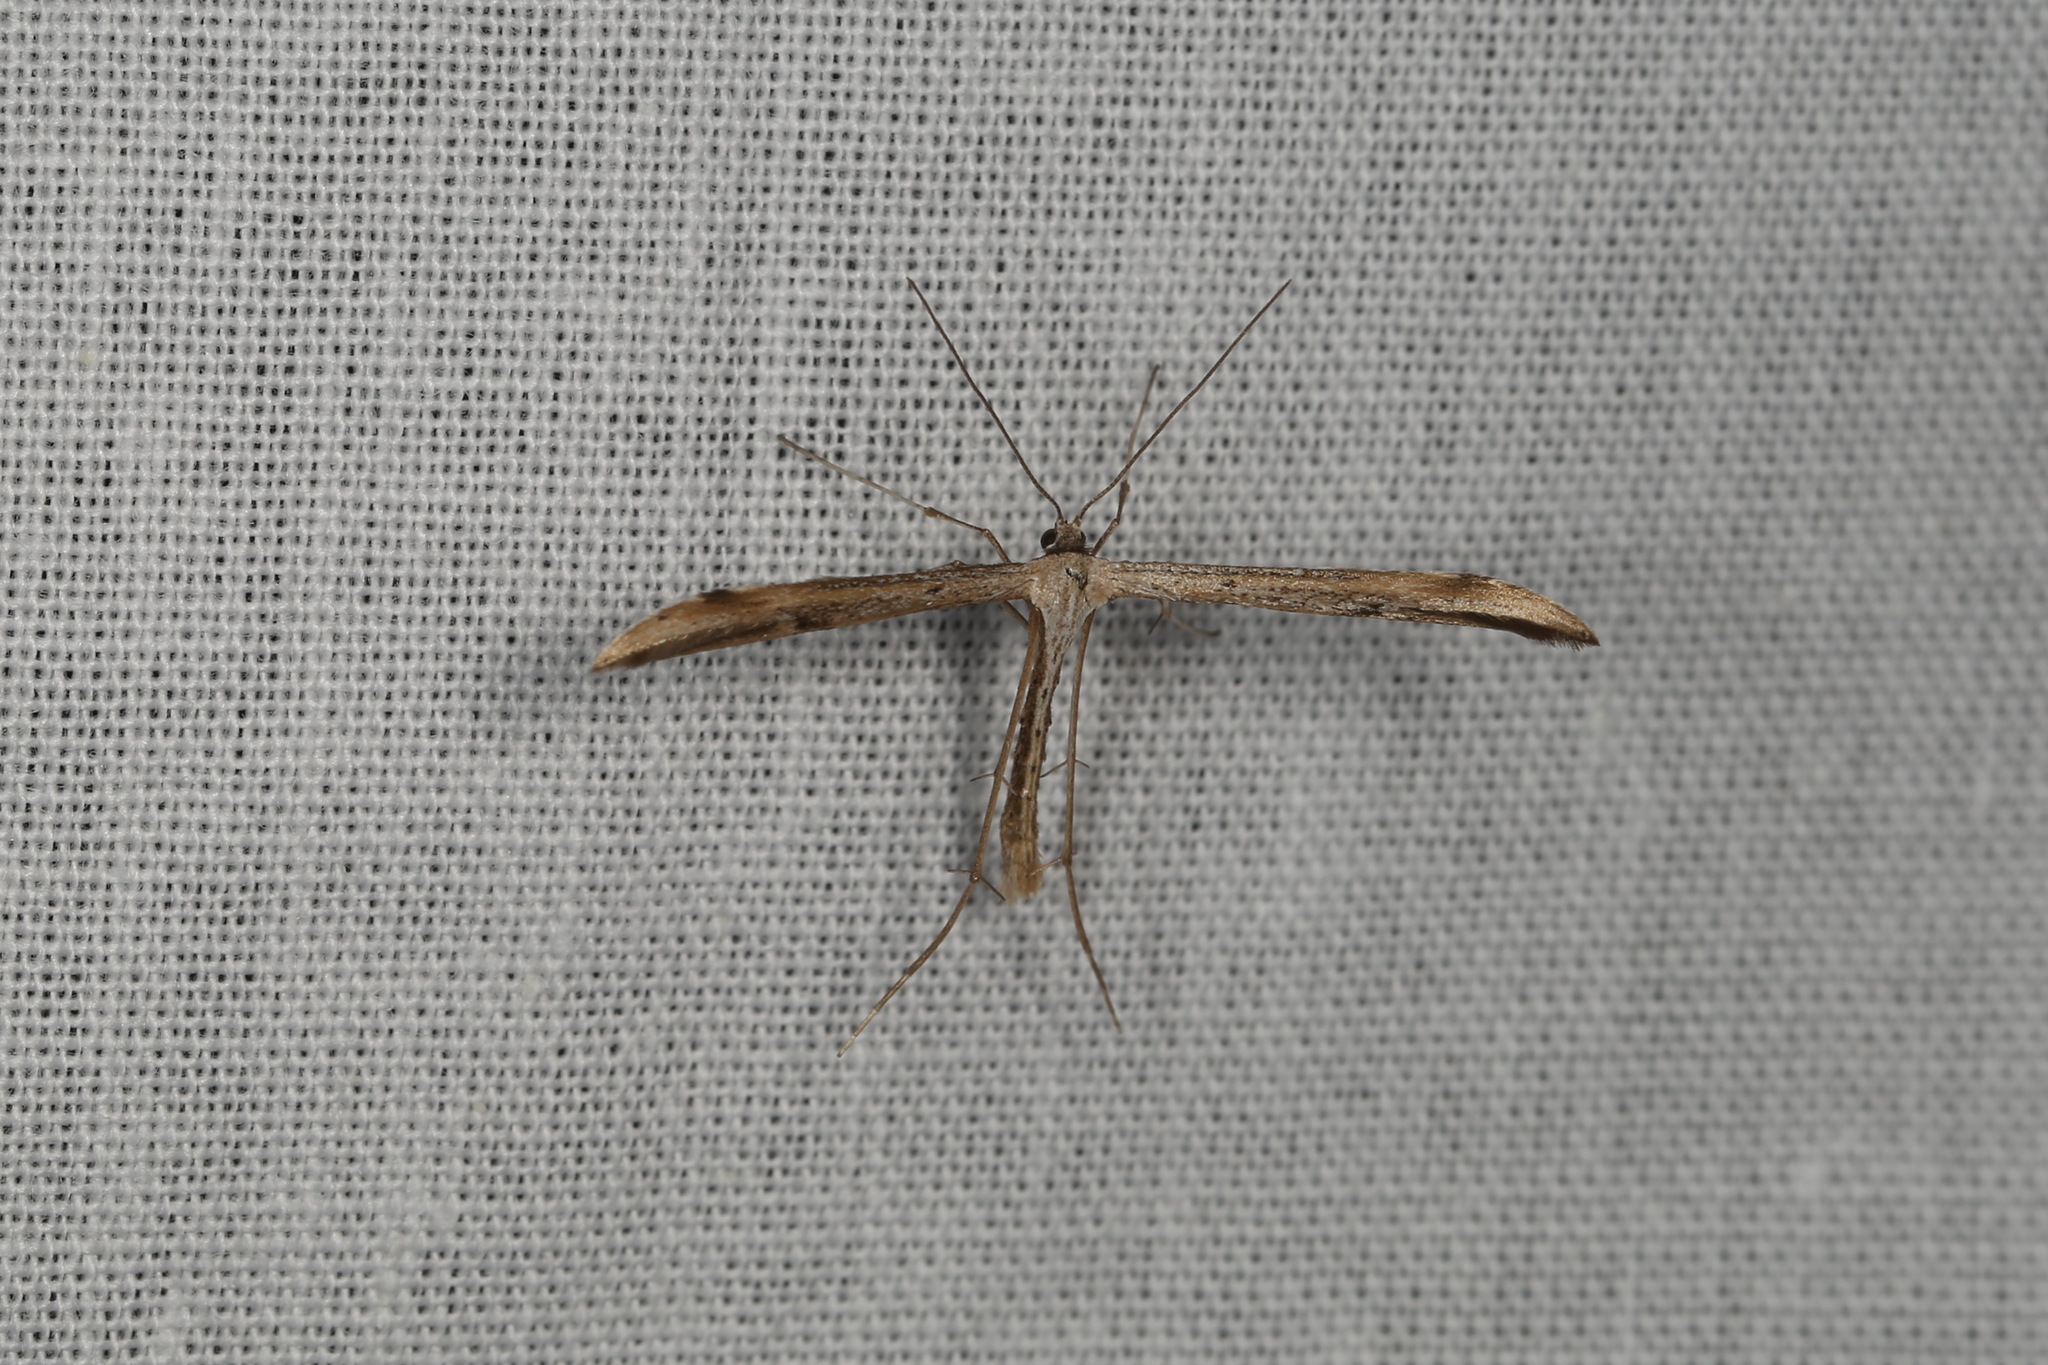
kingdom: Animalia
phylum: Arthropoda
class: Insecta
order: Lepidoptera
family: Pterophoridae
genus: Emmelina
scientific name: Emmelina monodactyla
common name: Common plume
